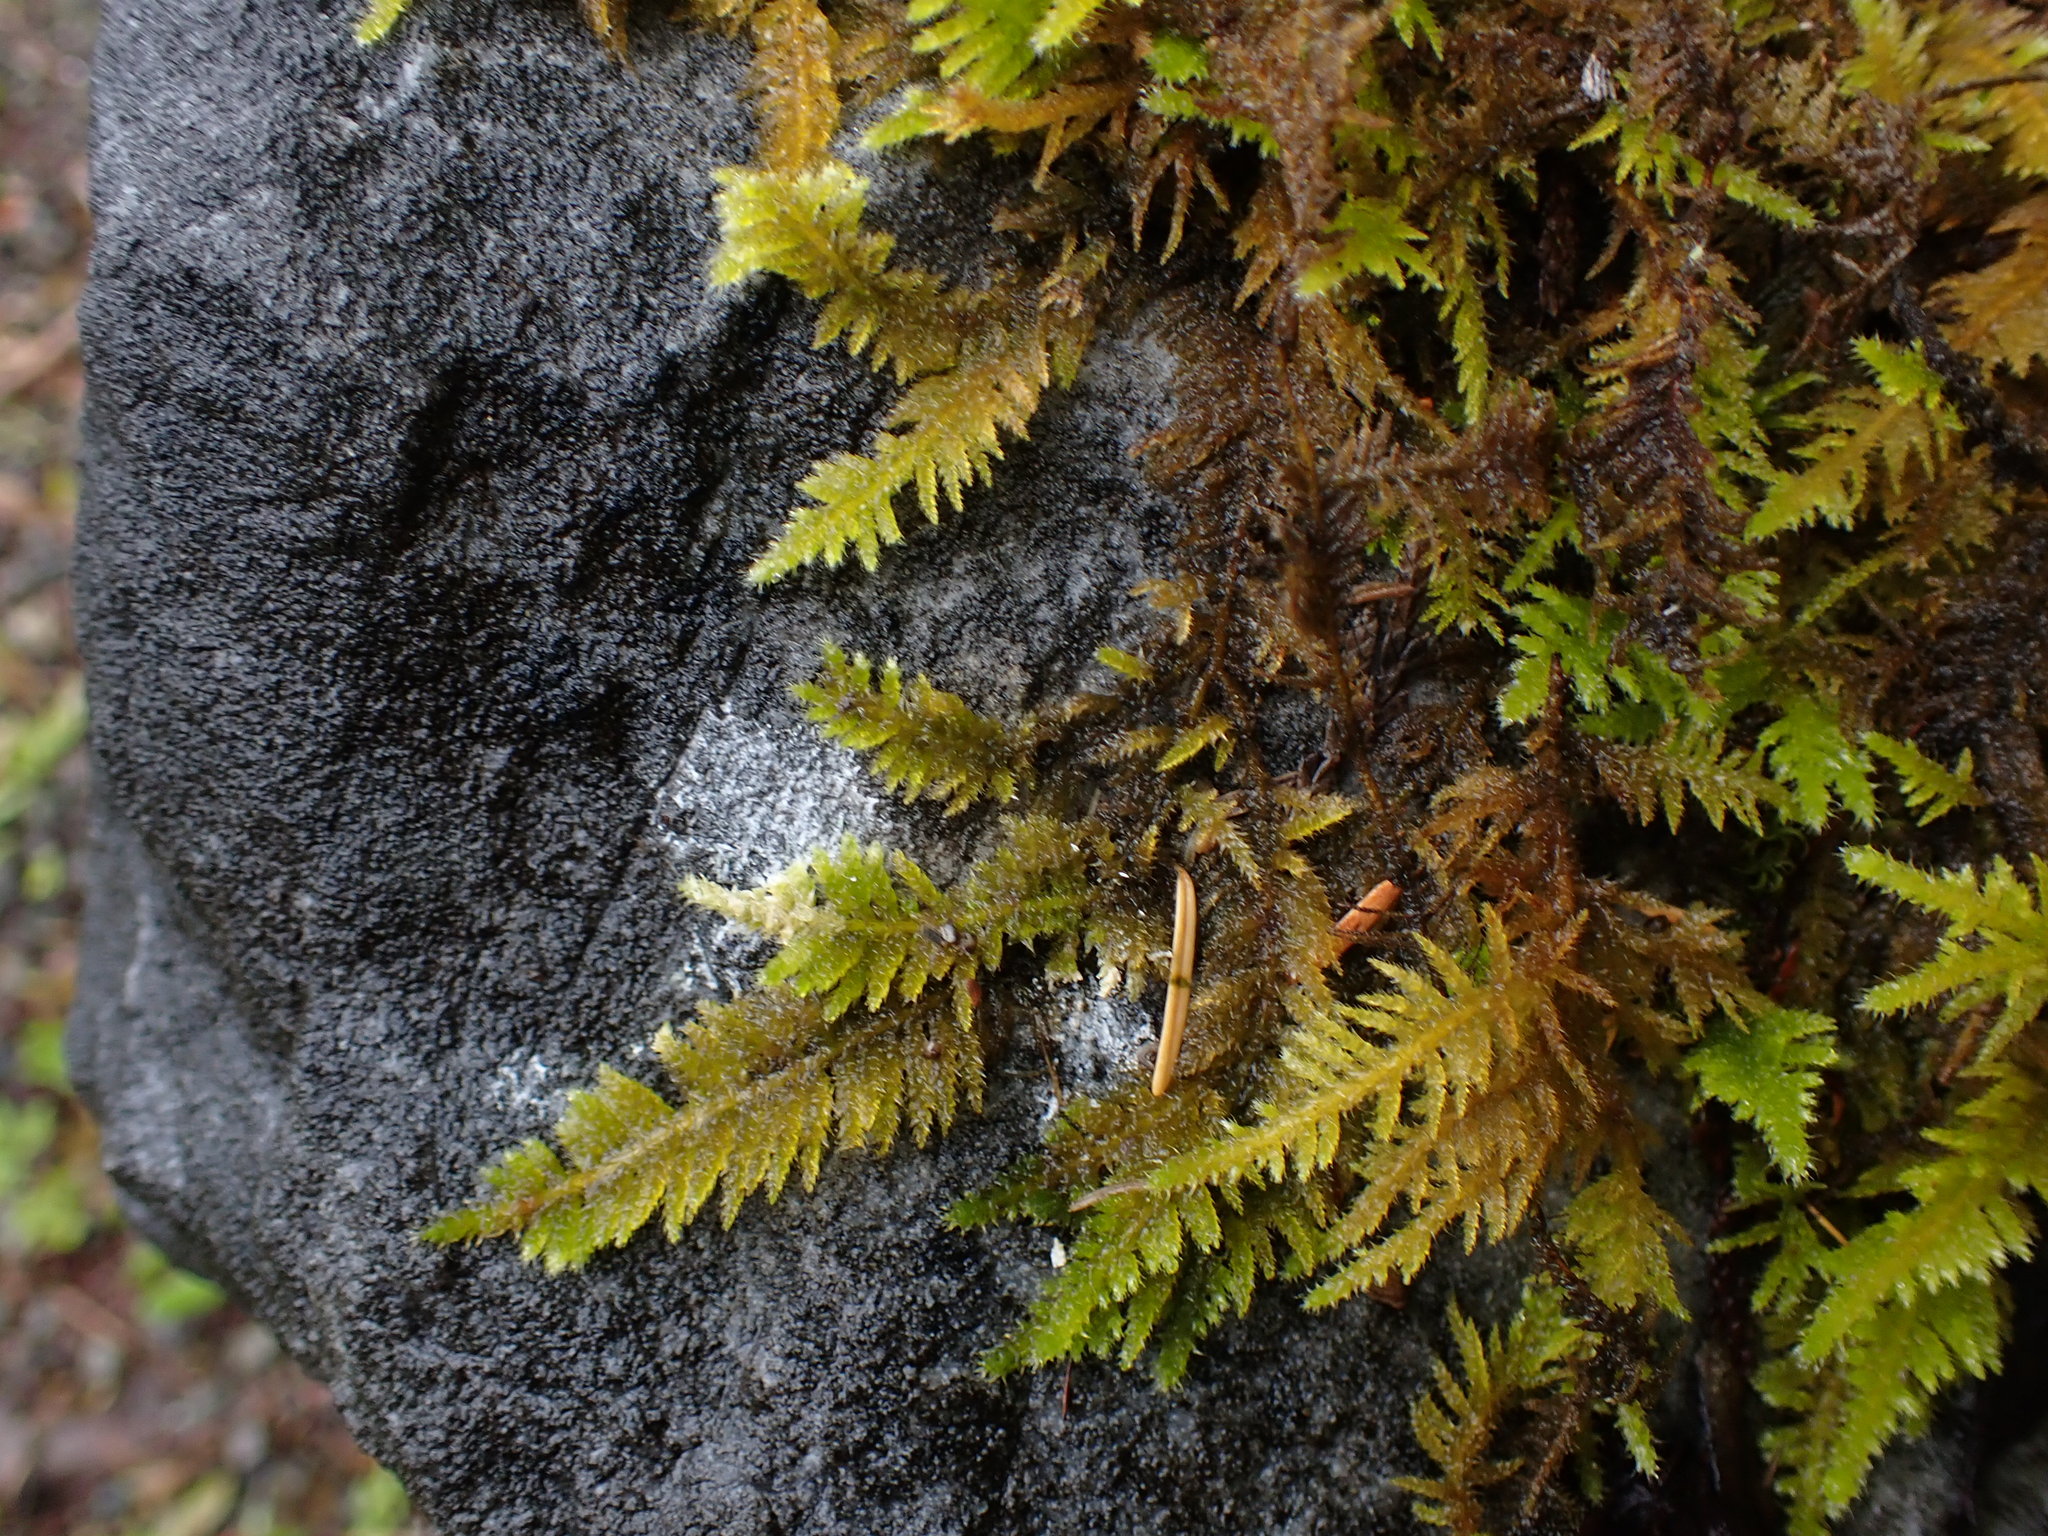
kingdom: Plantae
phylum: Bryophyta
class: Bryopsida
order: Hypnales
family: Brachytheciaceae
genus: Kindbergia
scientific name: Kindbergia oregana
